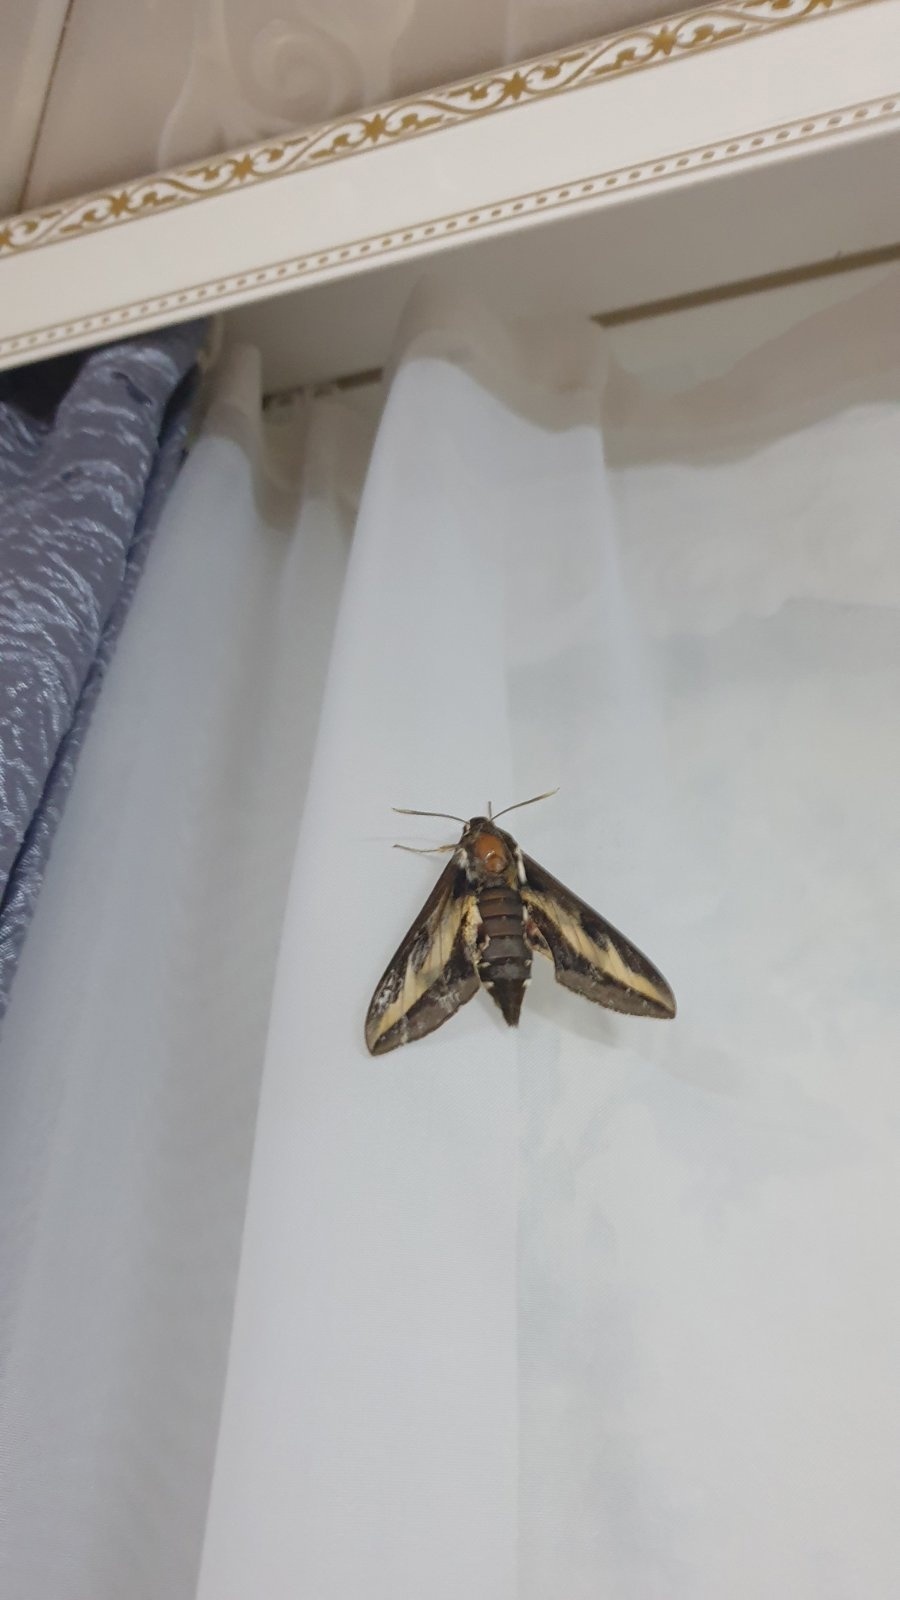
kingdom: Animalia
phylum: Arthropoda
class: Insecta
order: Lepidoptera
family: Sphingidae
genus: Hyles
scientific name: Hyles gallii
